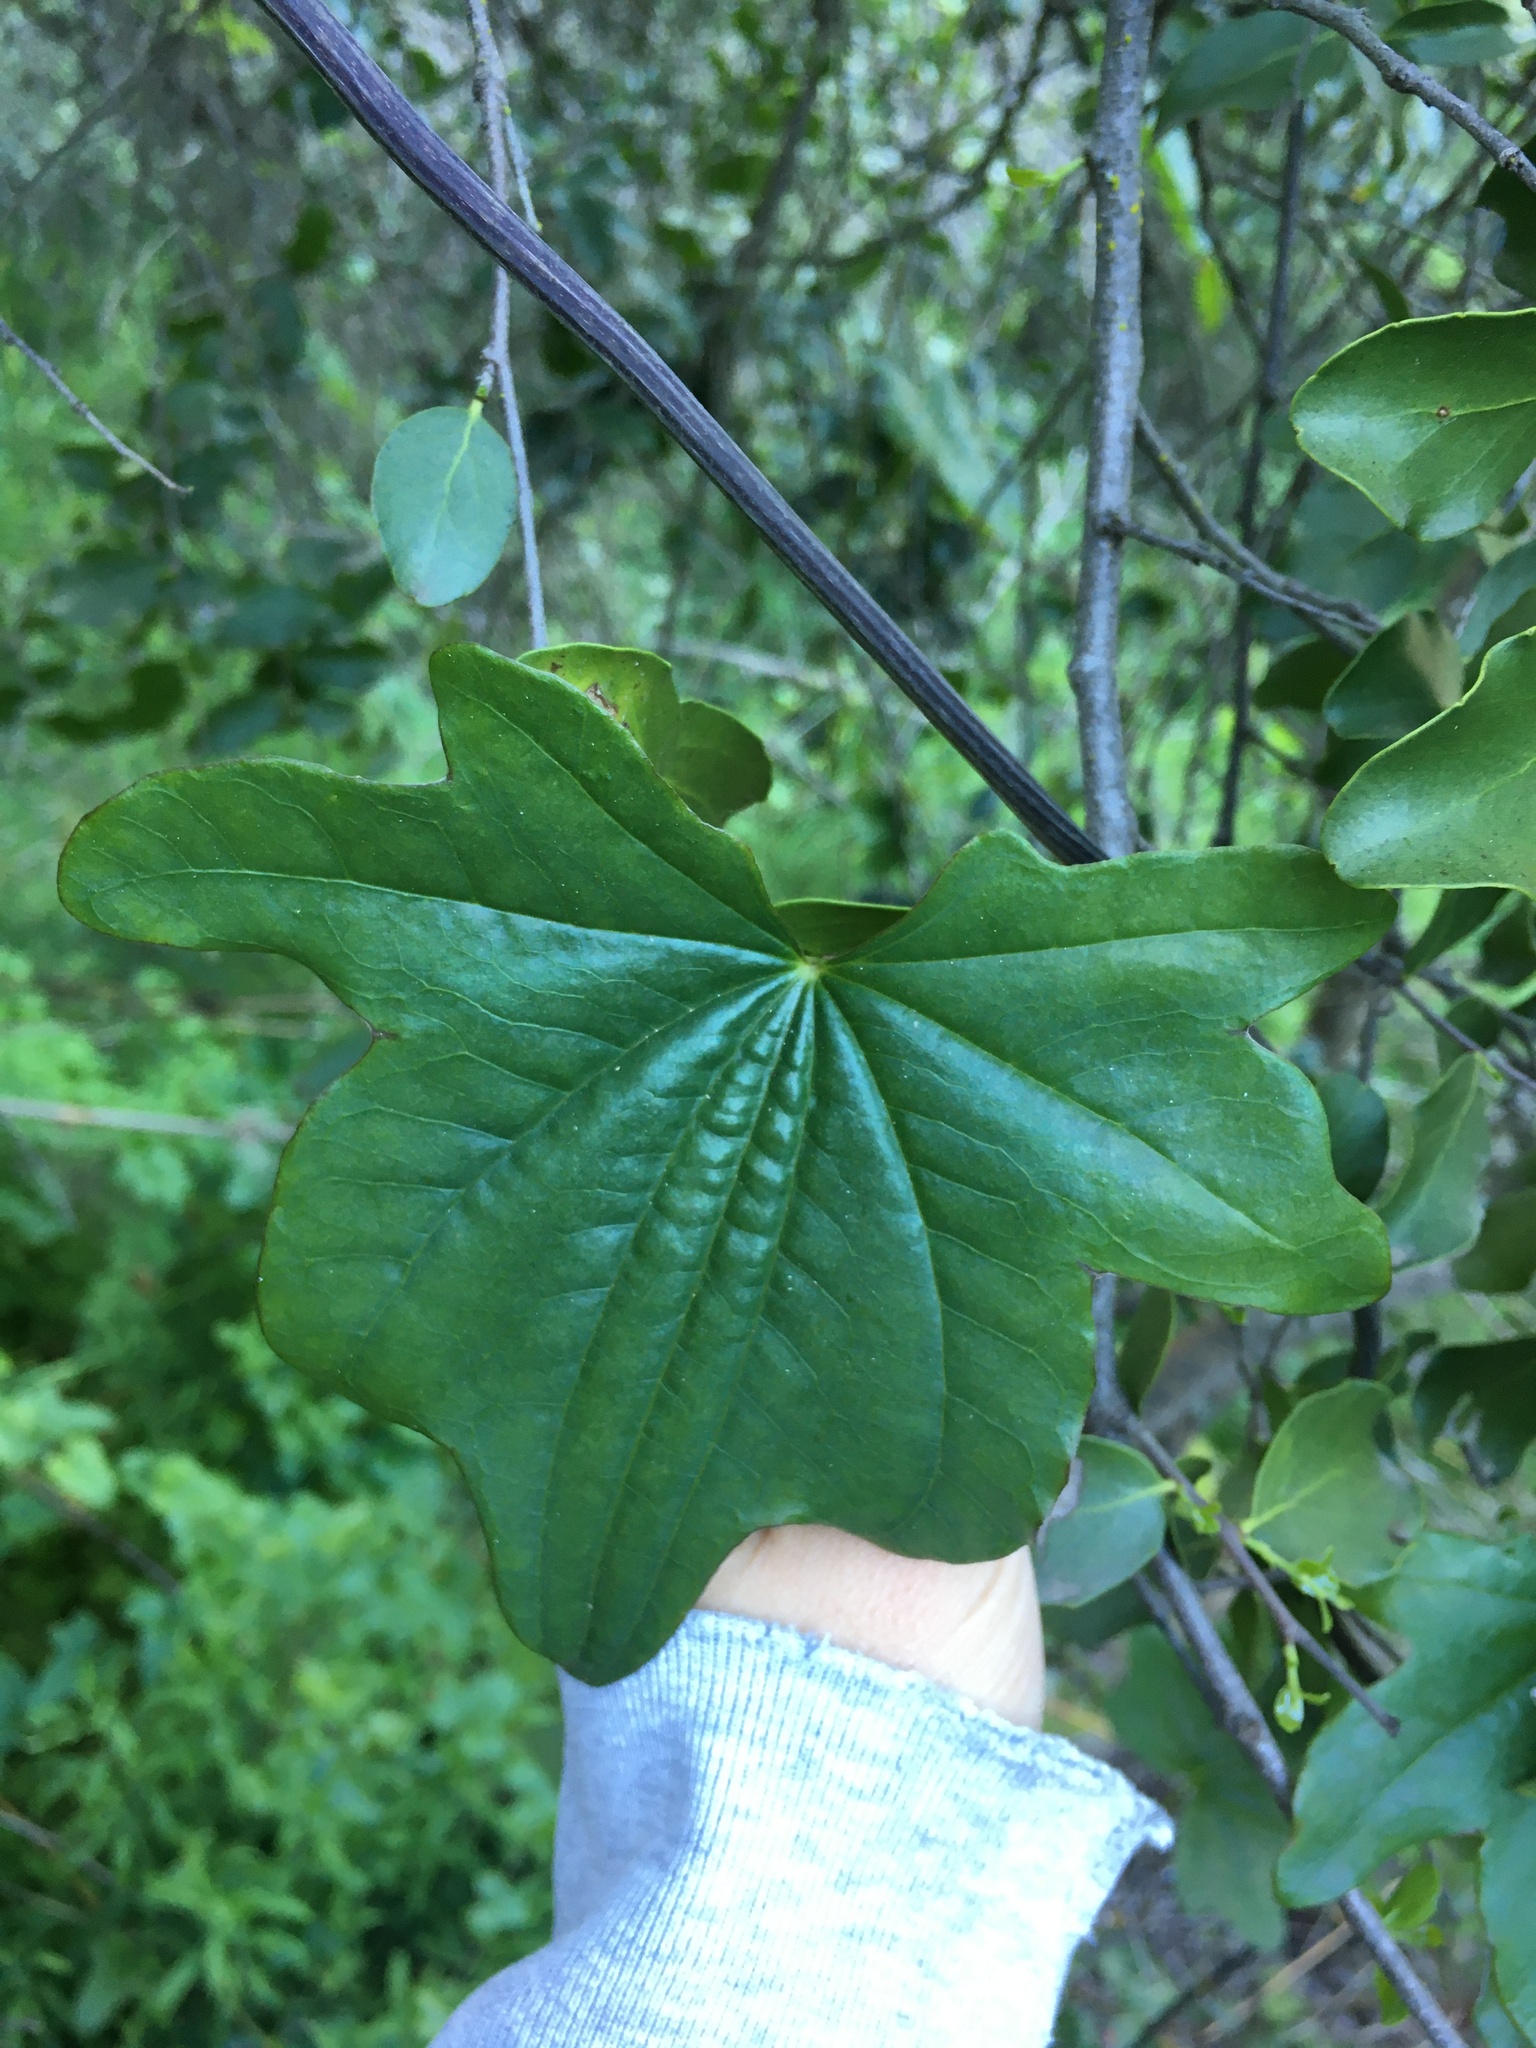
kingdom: Plantae
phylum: Tracheophyta
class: Liliopsida
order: Dioscoreales
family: Dioscoreaceae
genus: Dioscorea
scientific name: Dioscorea bryoniifolia
